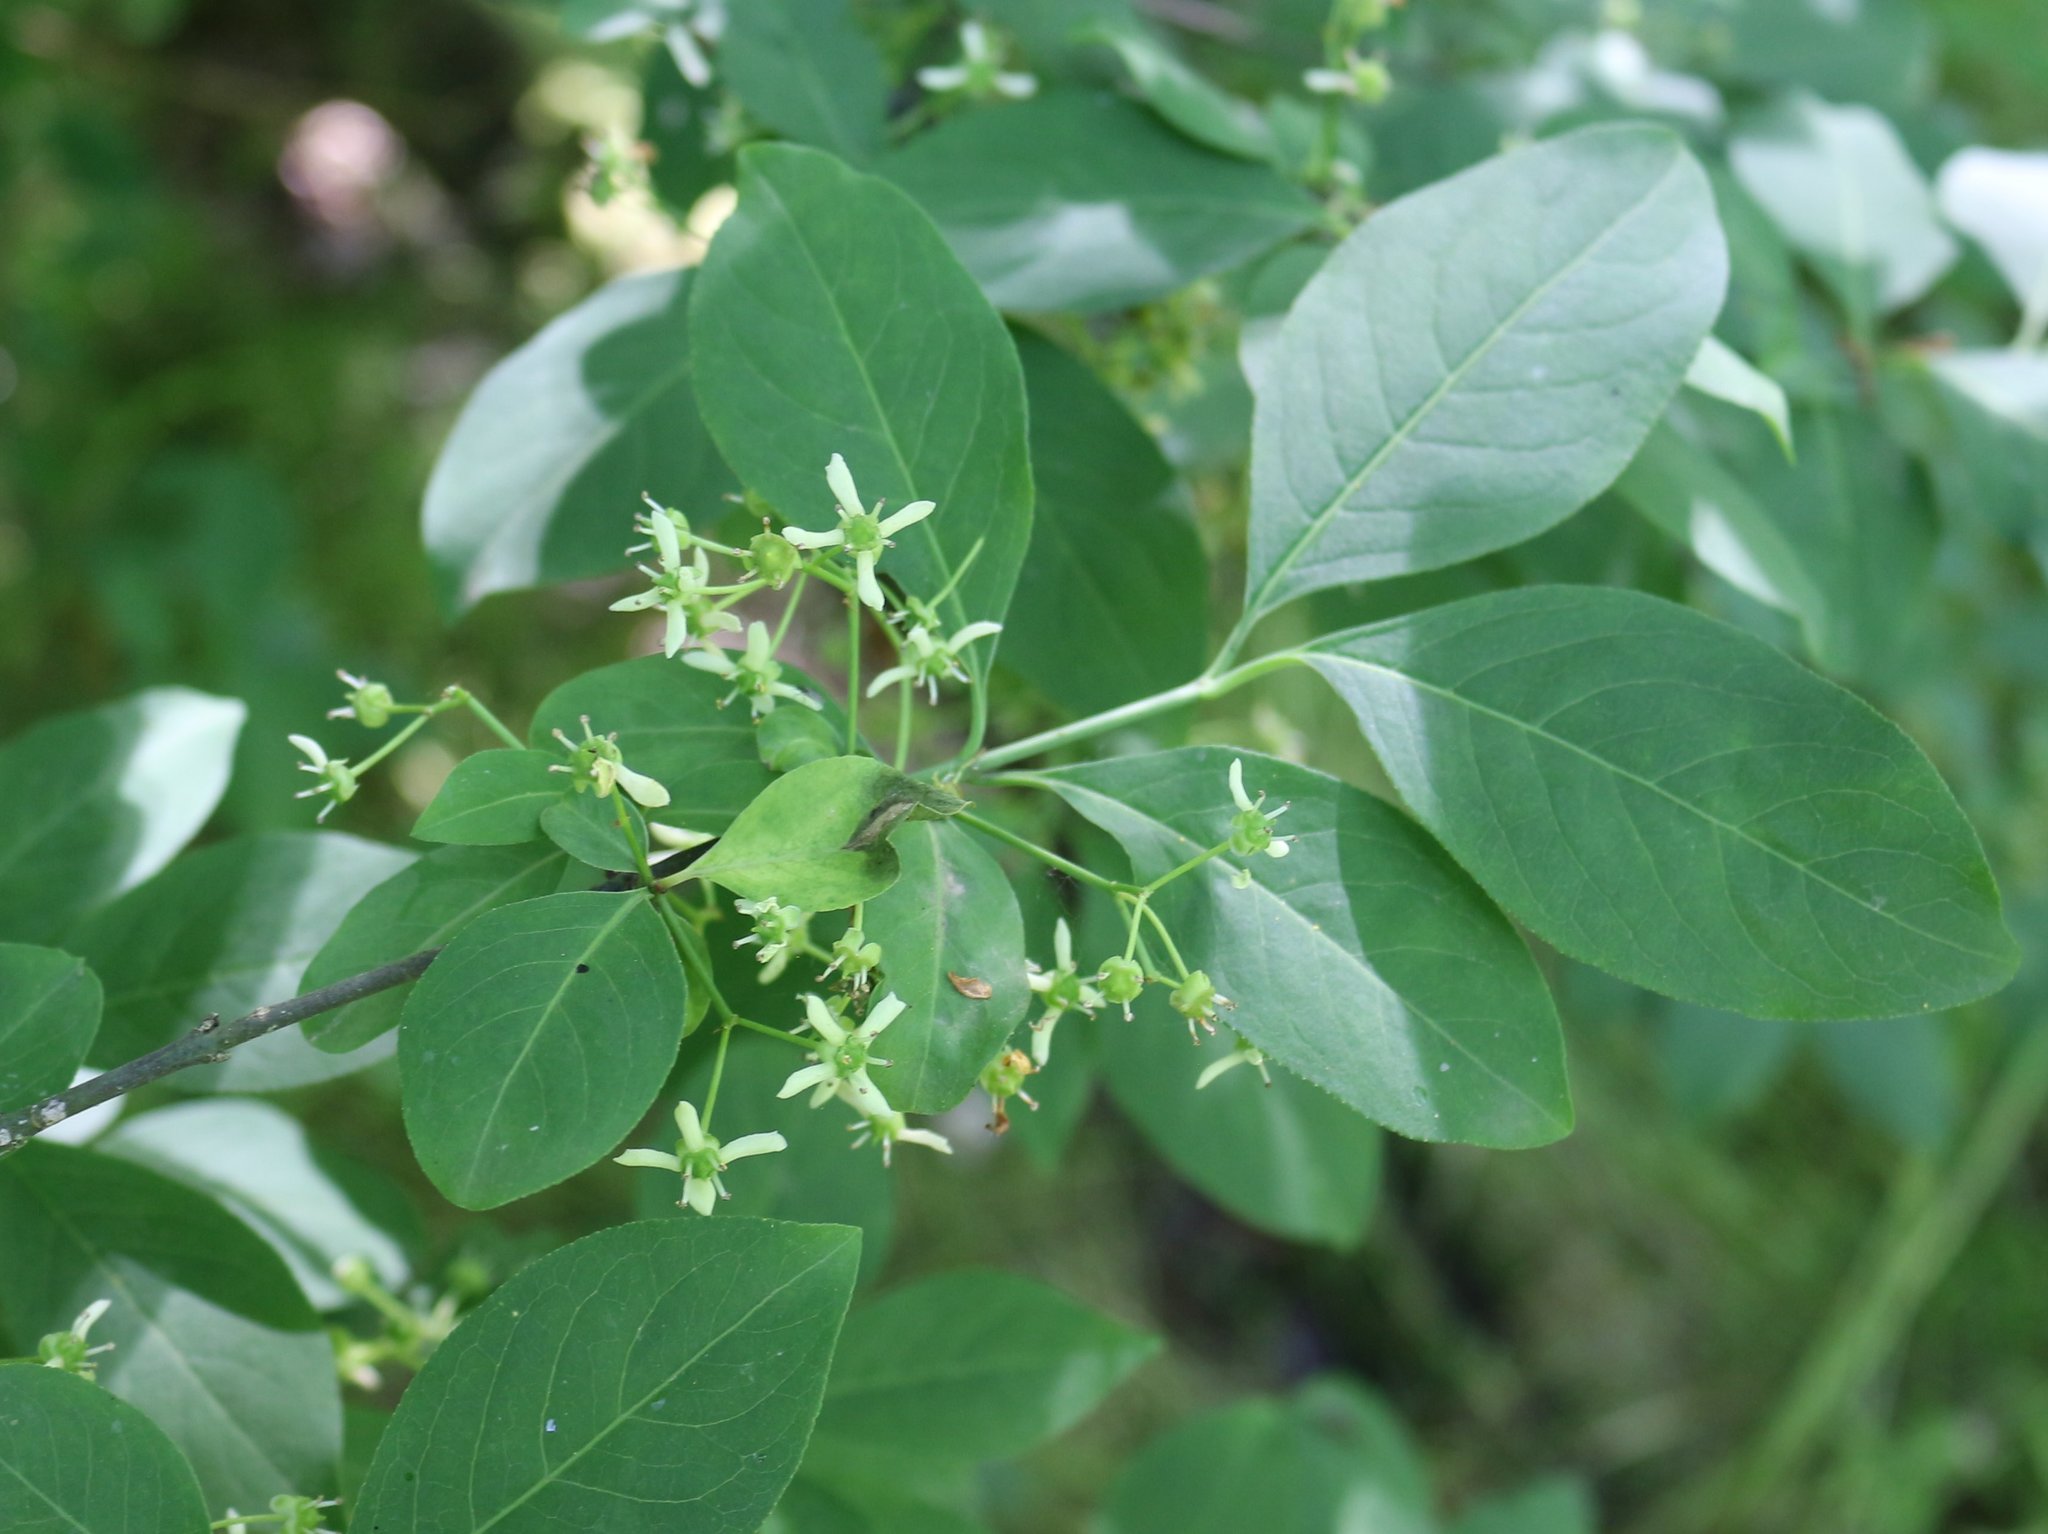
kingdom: Plantae
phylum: Tracheophyta
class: Magnoliopsida
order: Celastrales
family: Celastraceae
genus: Euonymus
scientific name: Euonymus europaeus
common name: Spindle
